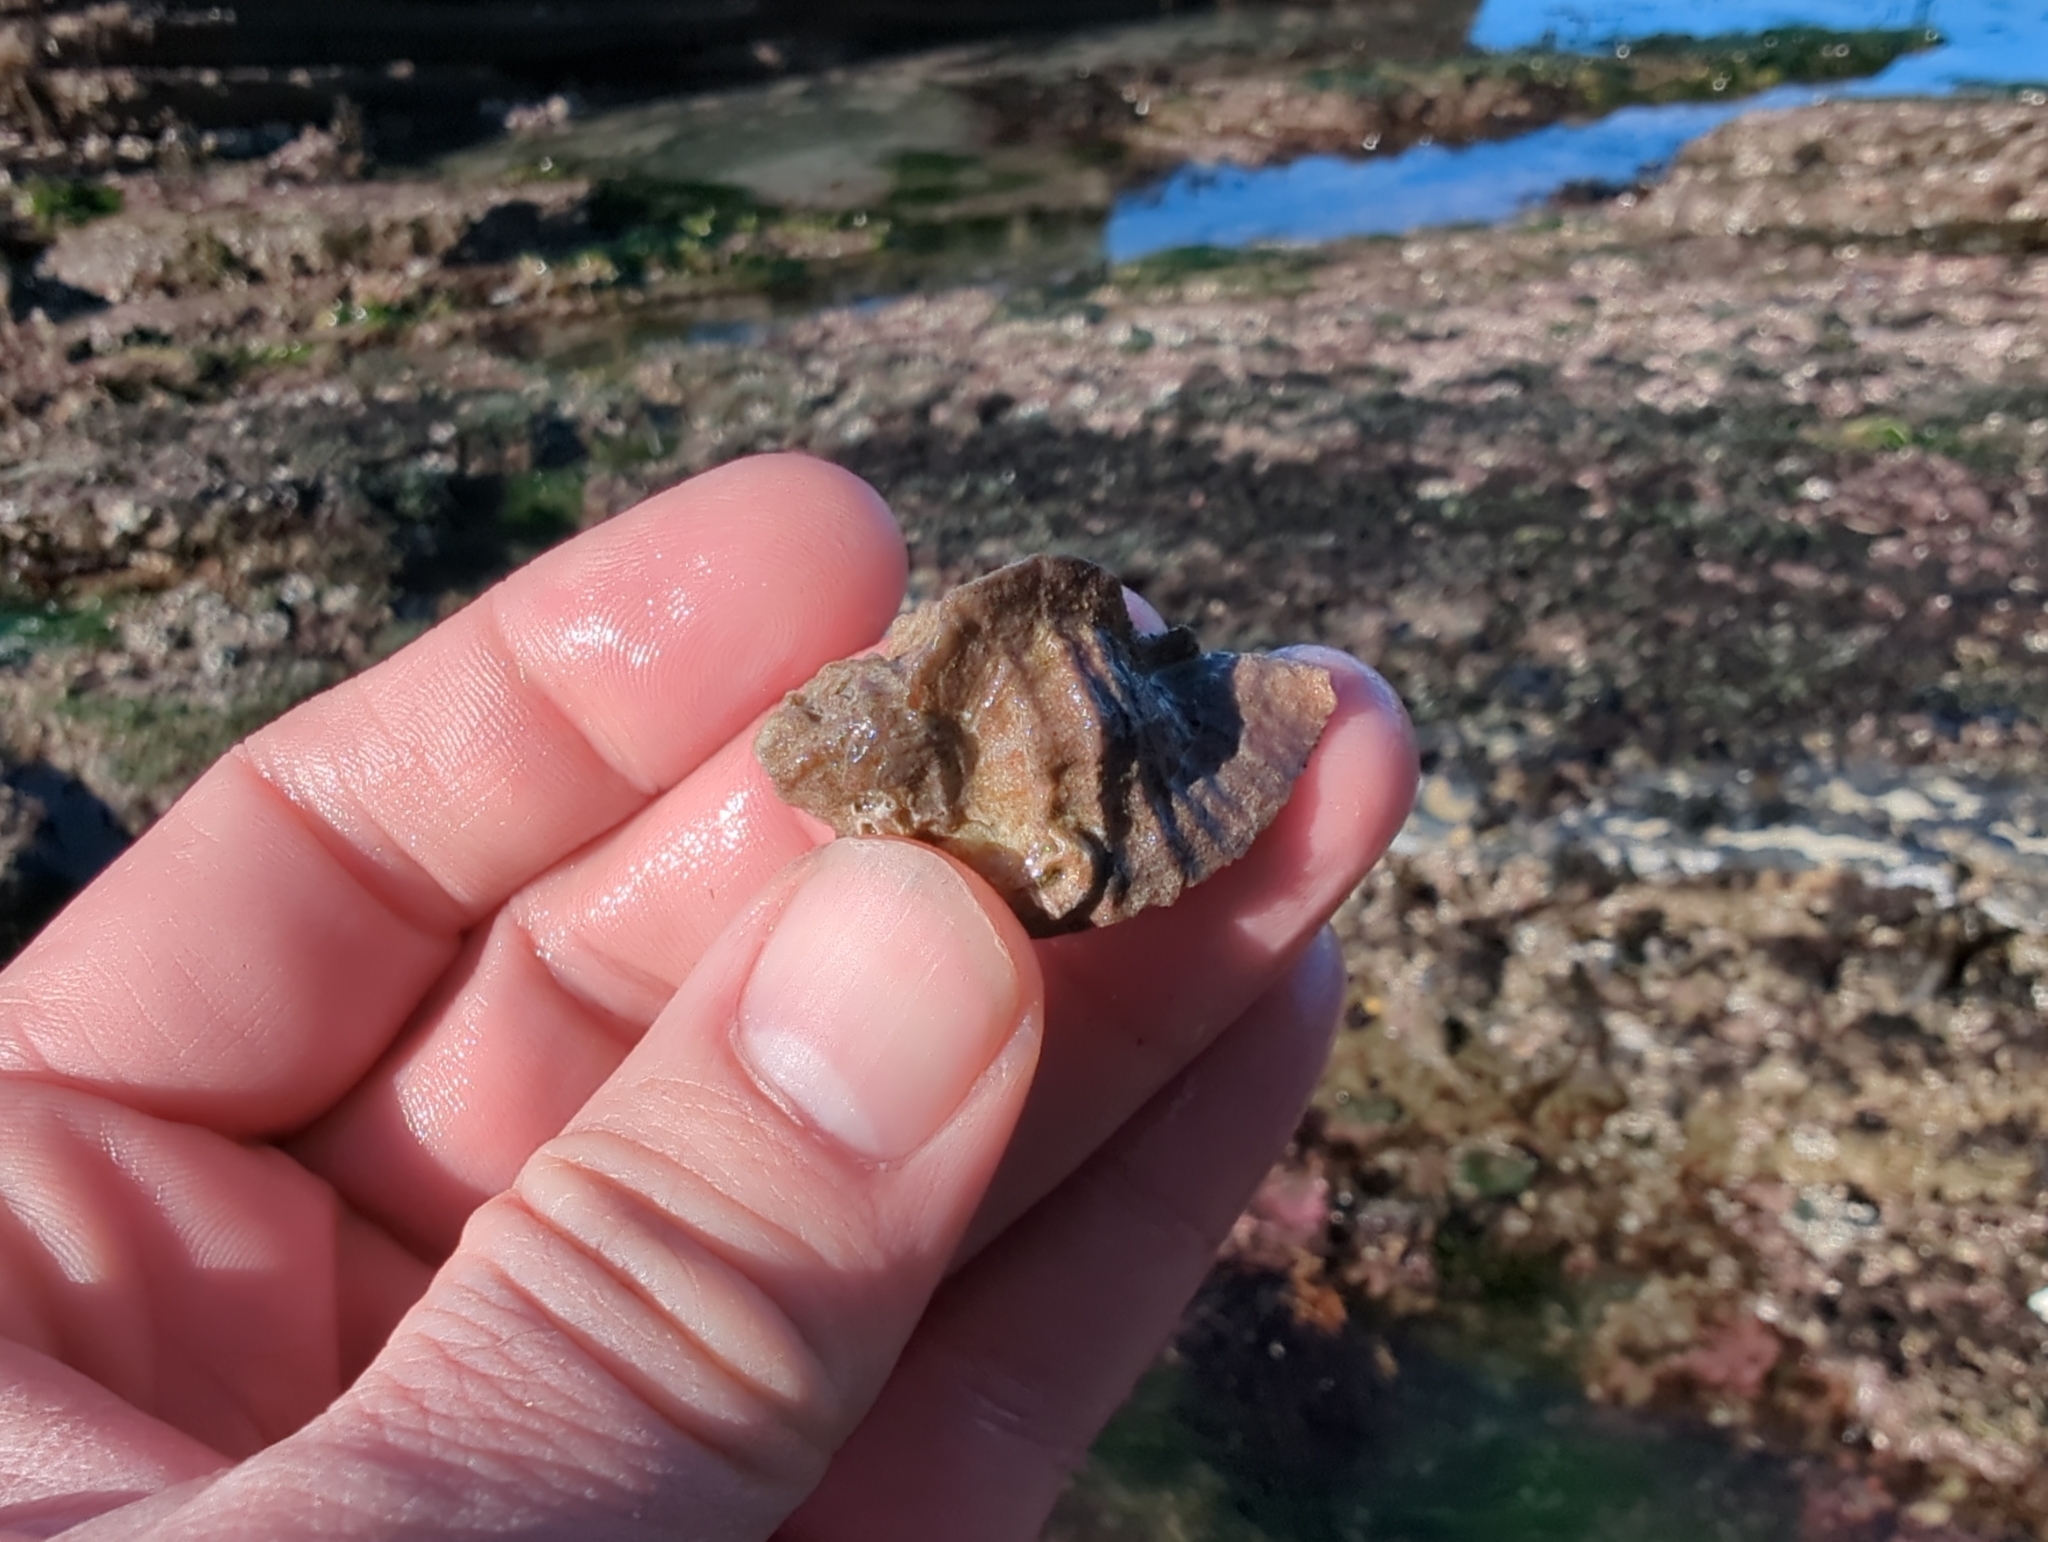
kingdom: Animalia
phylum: Mollusca
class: Gastropoda
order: Neogastropoda
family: Muricidae
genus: Ceratostoma
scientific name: Ceratostoma foliatum
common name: Foliate thorn purpura
